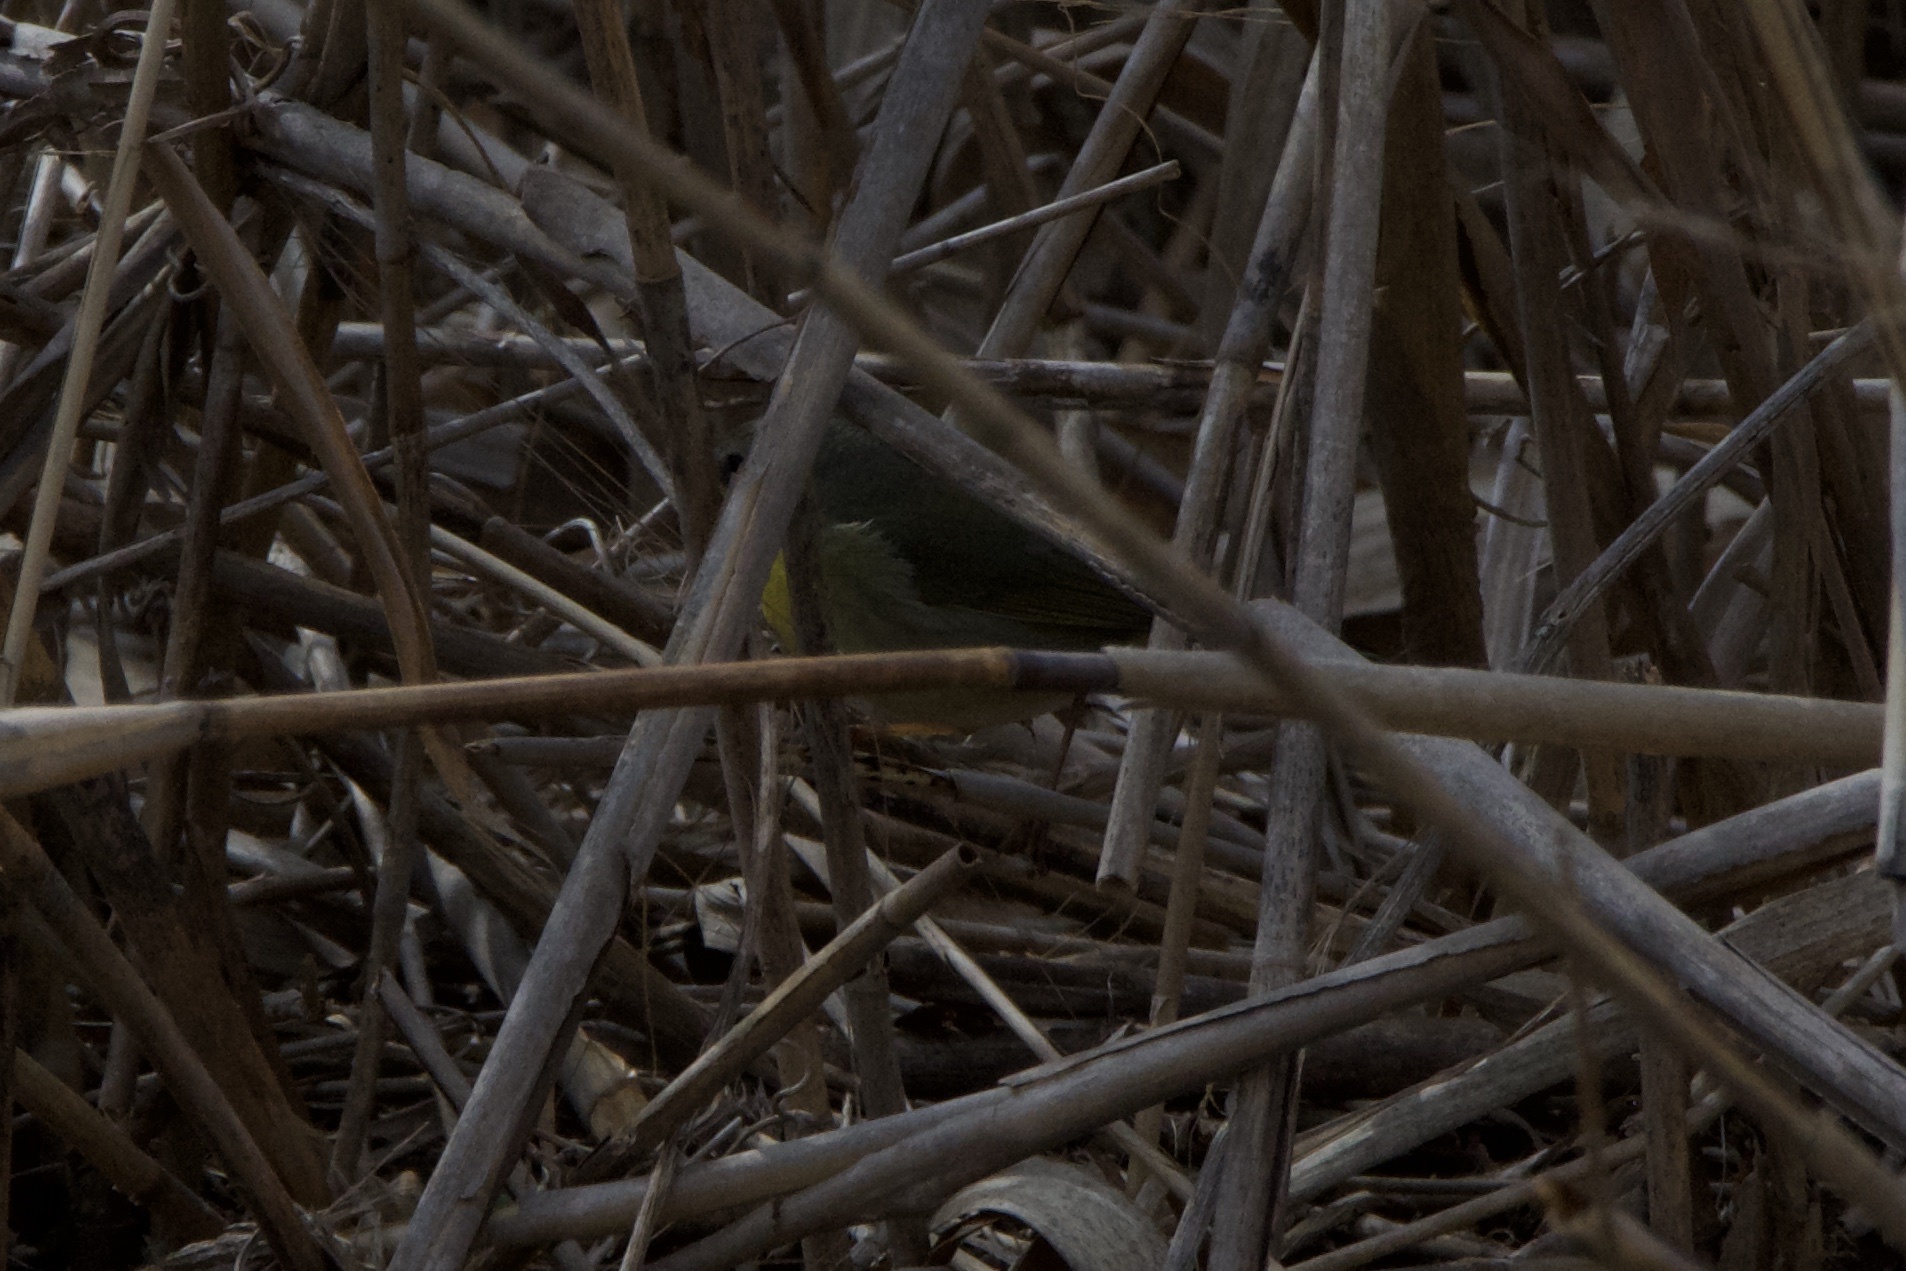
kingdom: Animalia
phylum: Chordata
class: Aves
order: Passeriformes
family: Parulidae
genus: Geothlypis
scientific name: Geothlypis trichas
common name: Common yellowthroat
